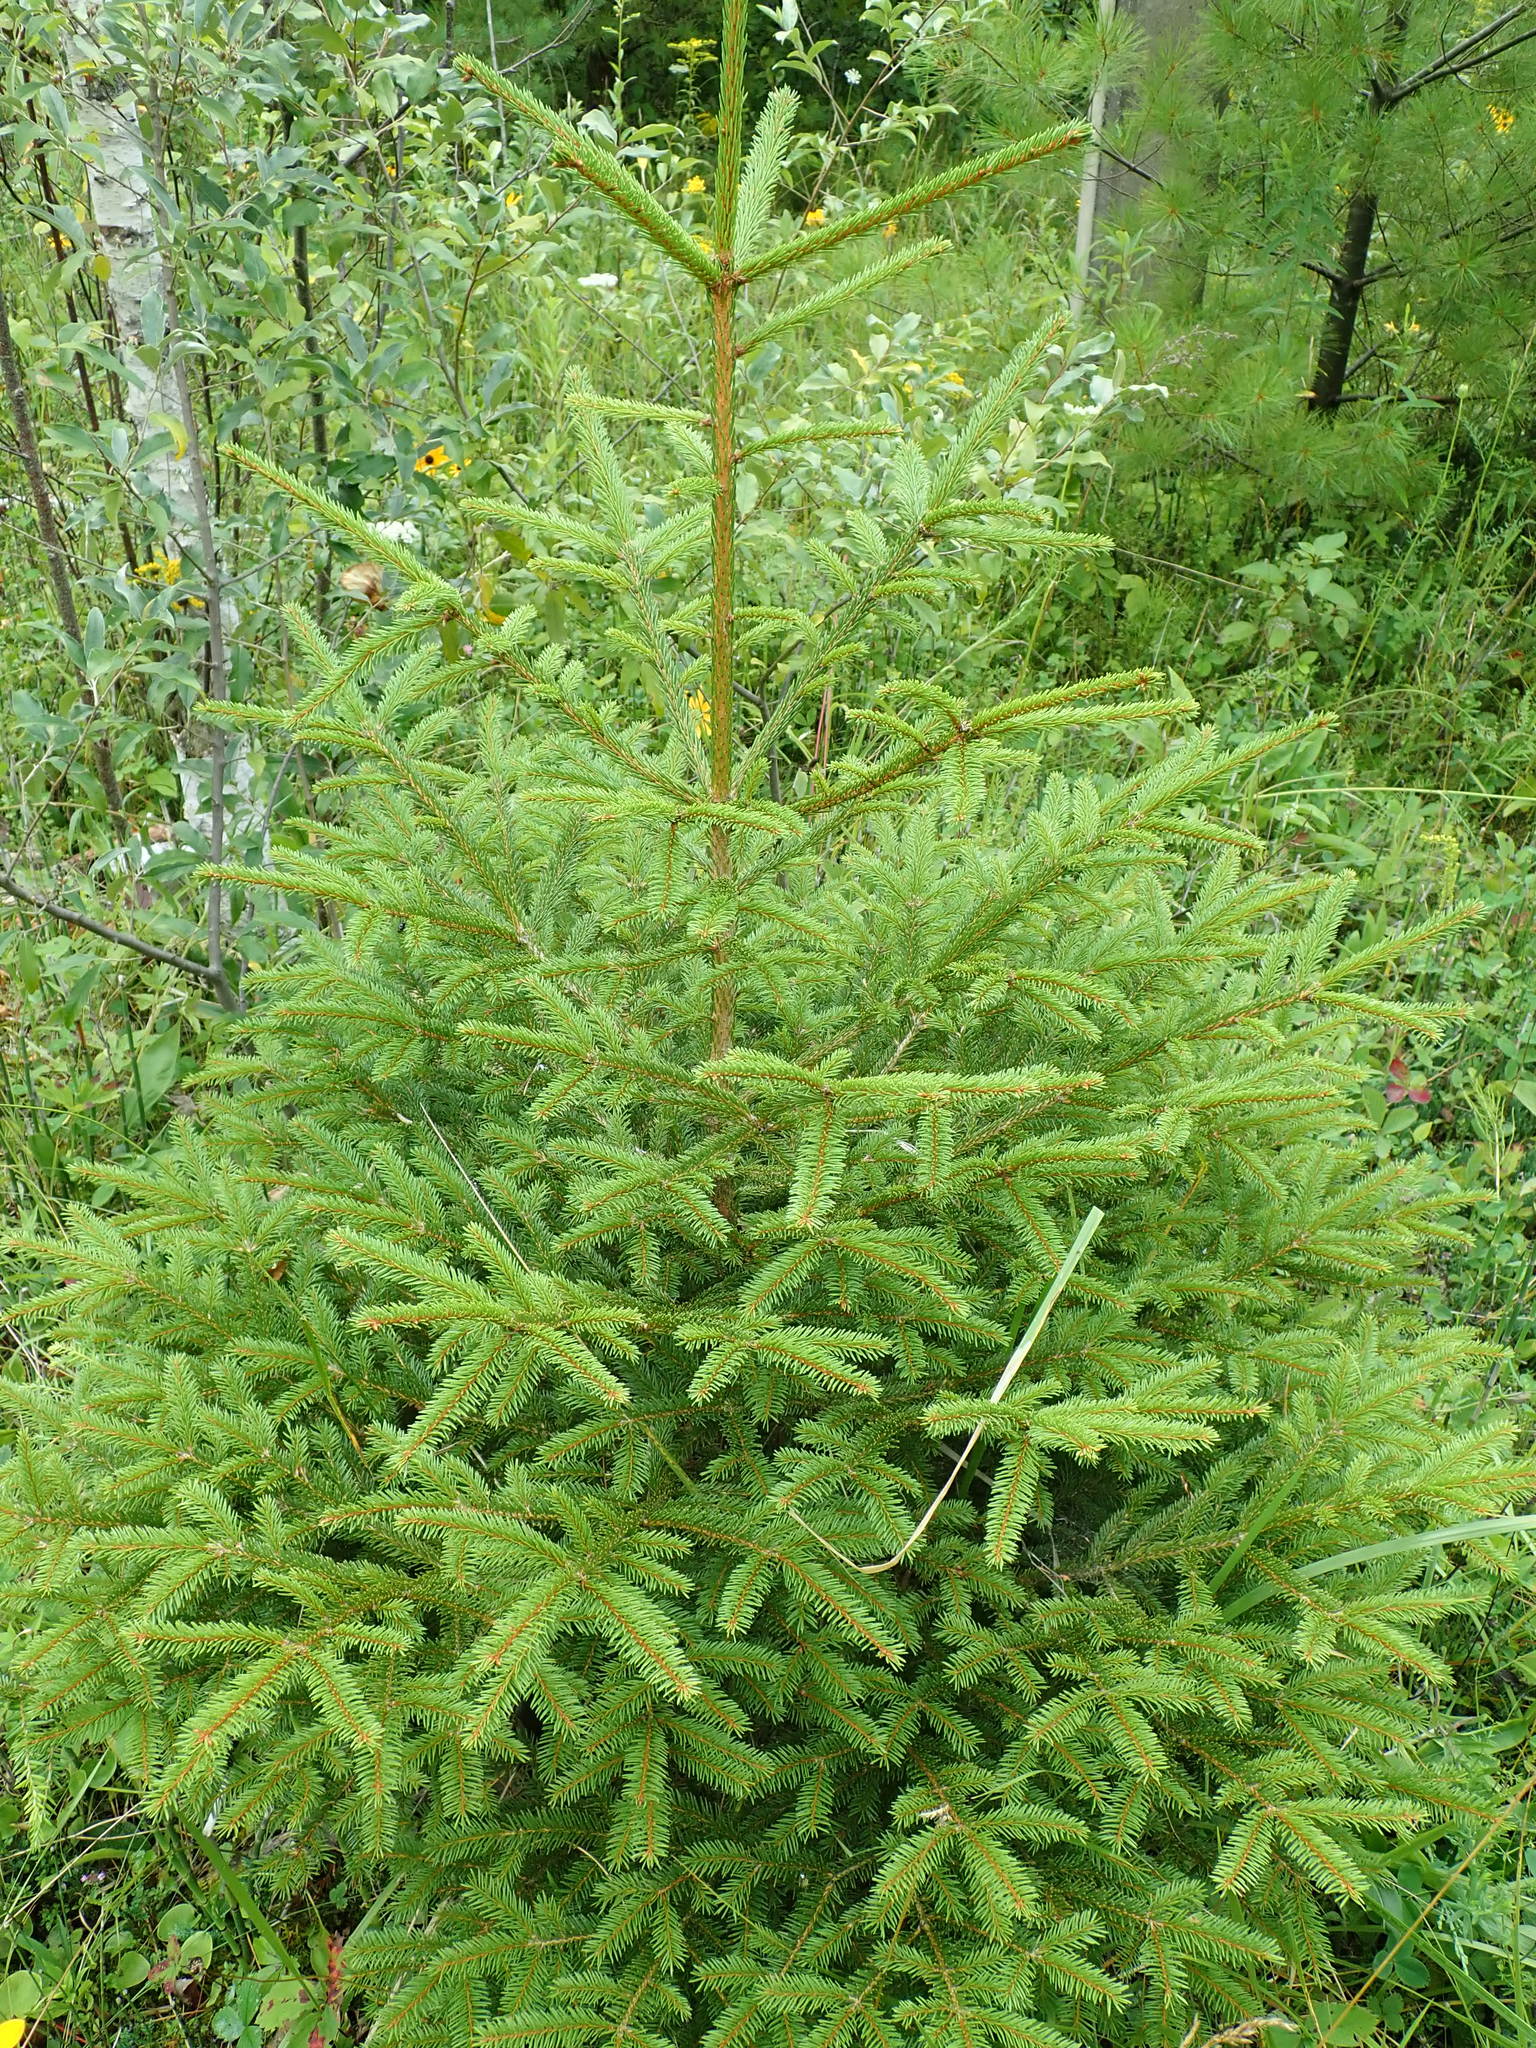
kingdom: Plantae
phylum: Tracheophyta
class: Pinopsida
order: Pinales
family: Pinaceae
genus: Picea
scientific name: Picea
